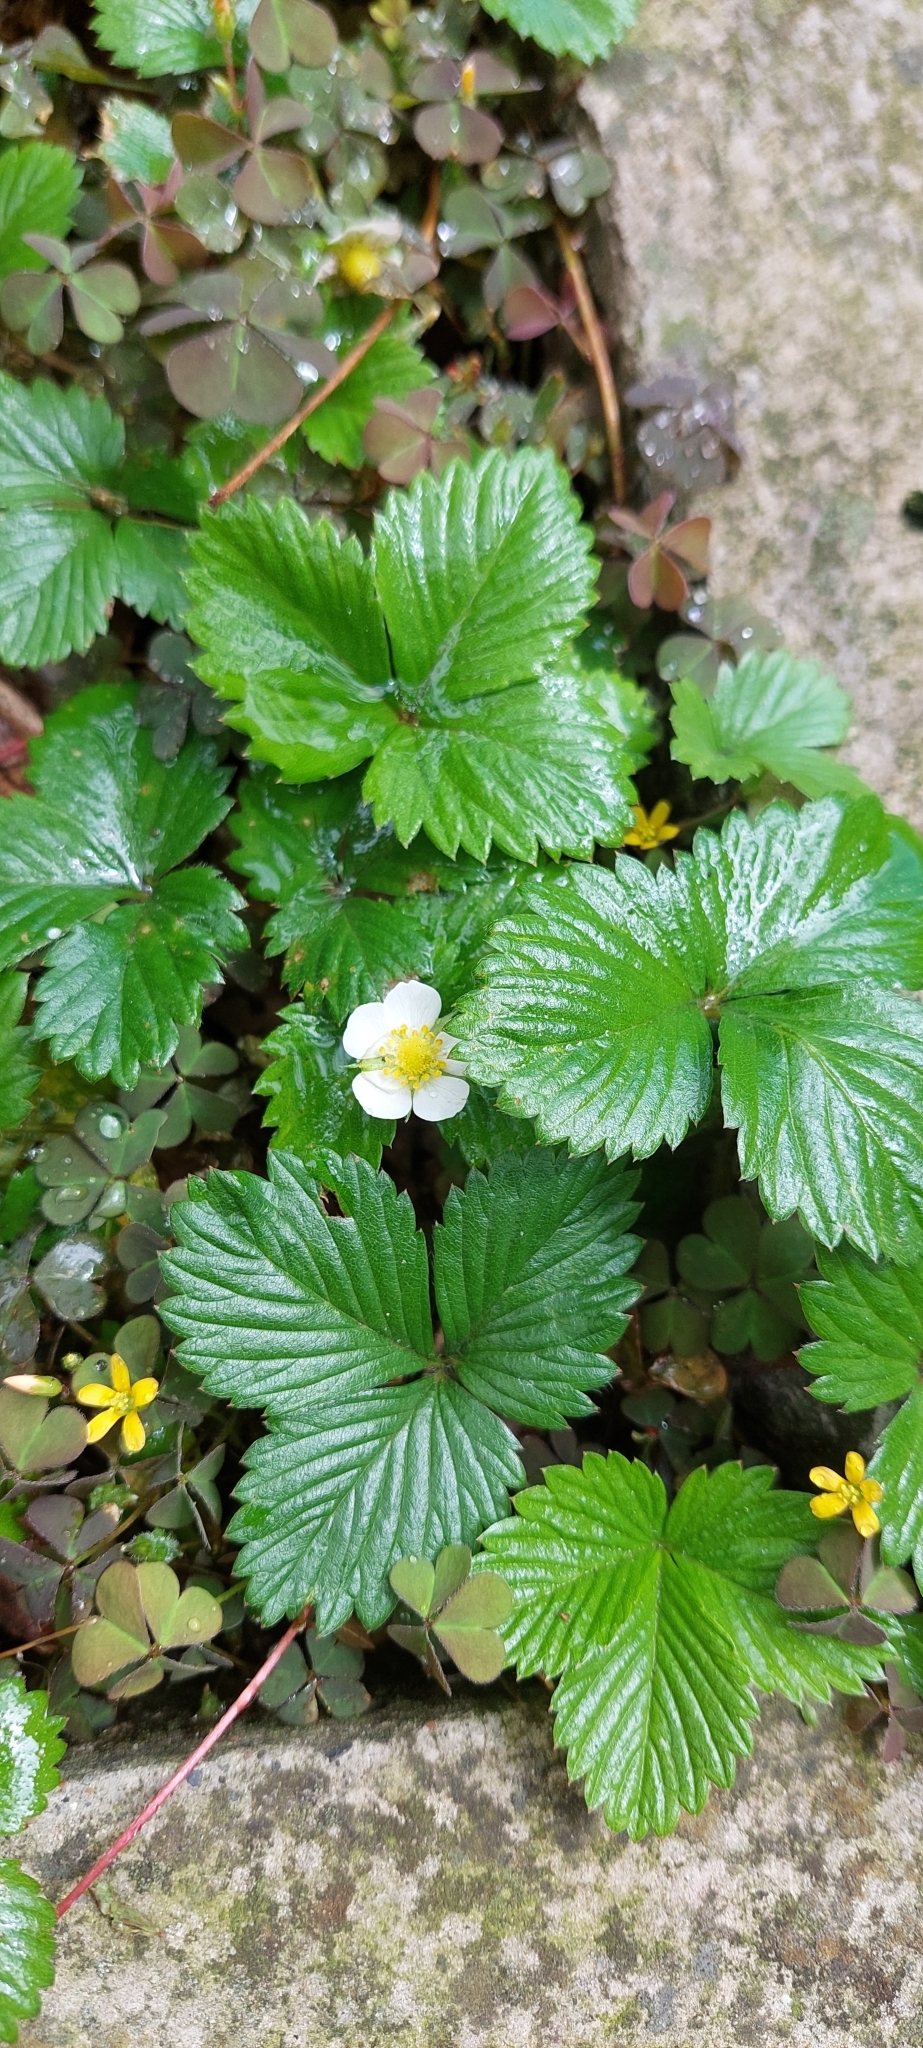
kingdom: Plantae
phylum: Tracheophyta
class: Magnoliopsida
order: Rosales
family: Rosaceae
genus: Fragaria
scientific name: Fragaria vesca
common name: Wild strawberry
